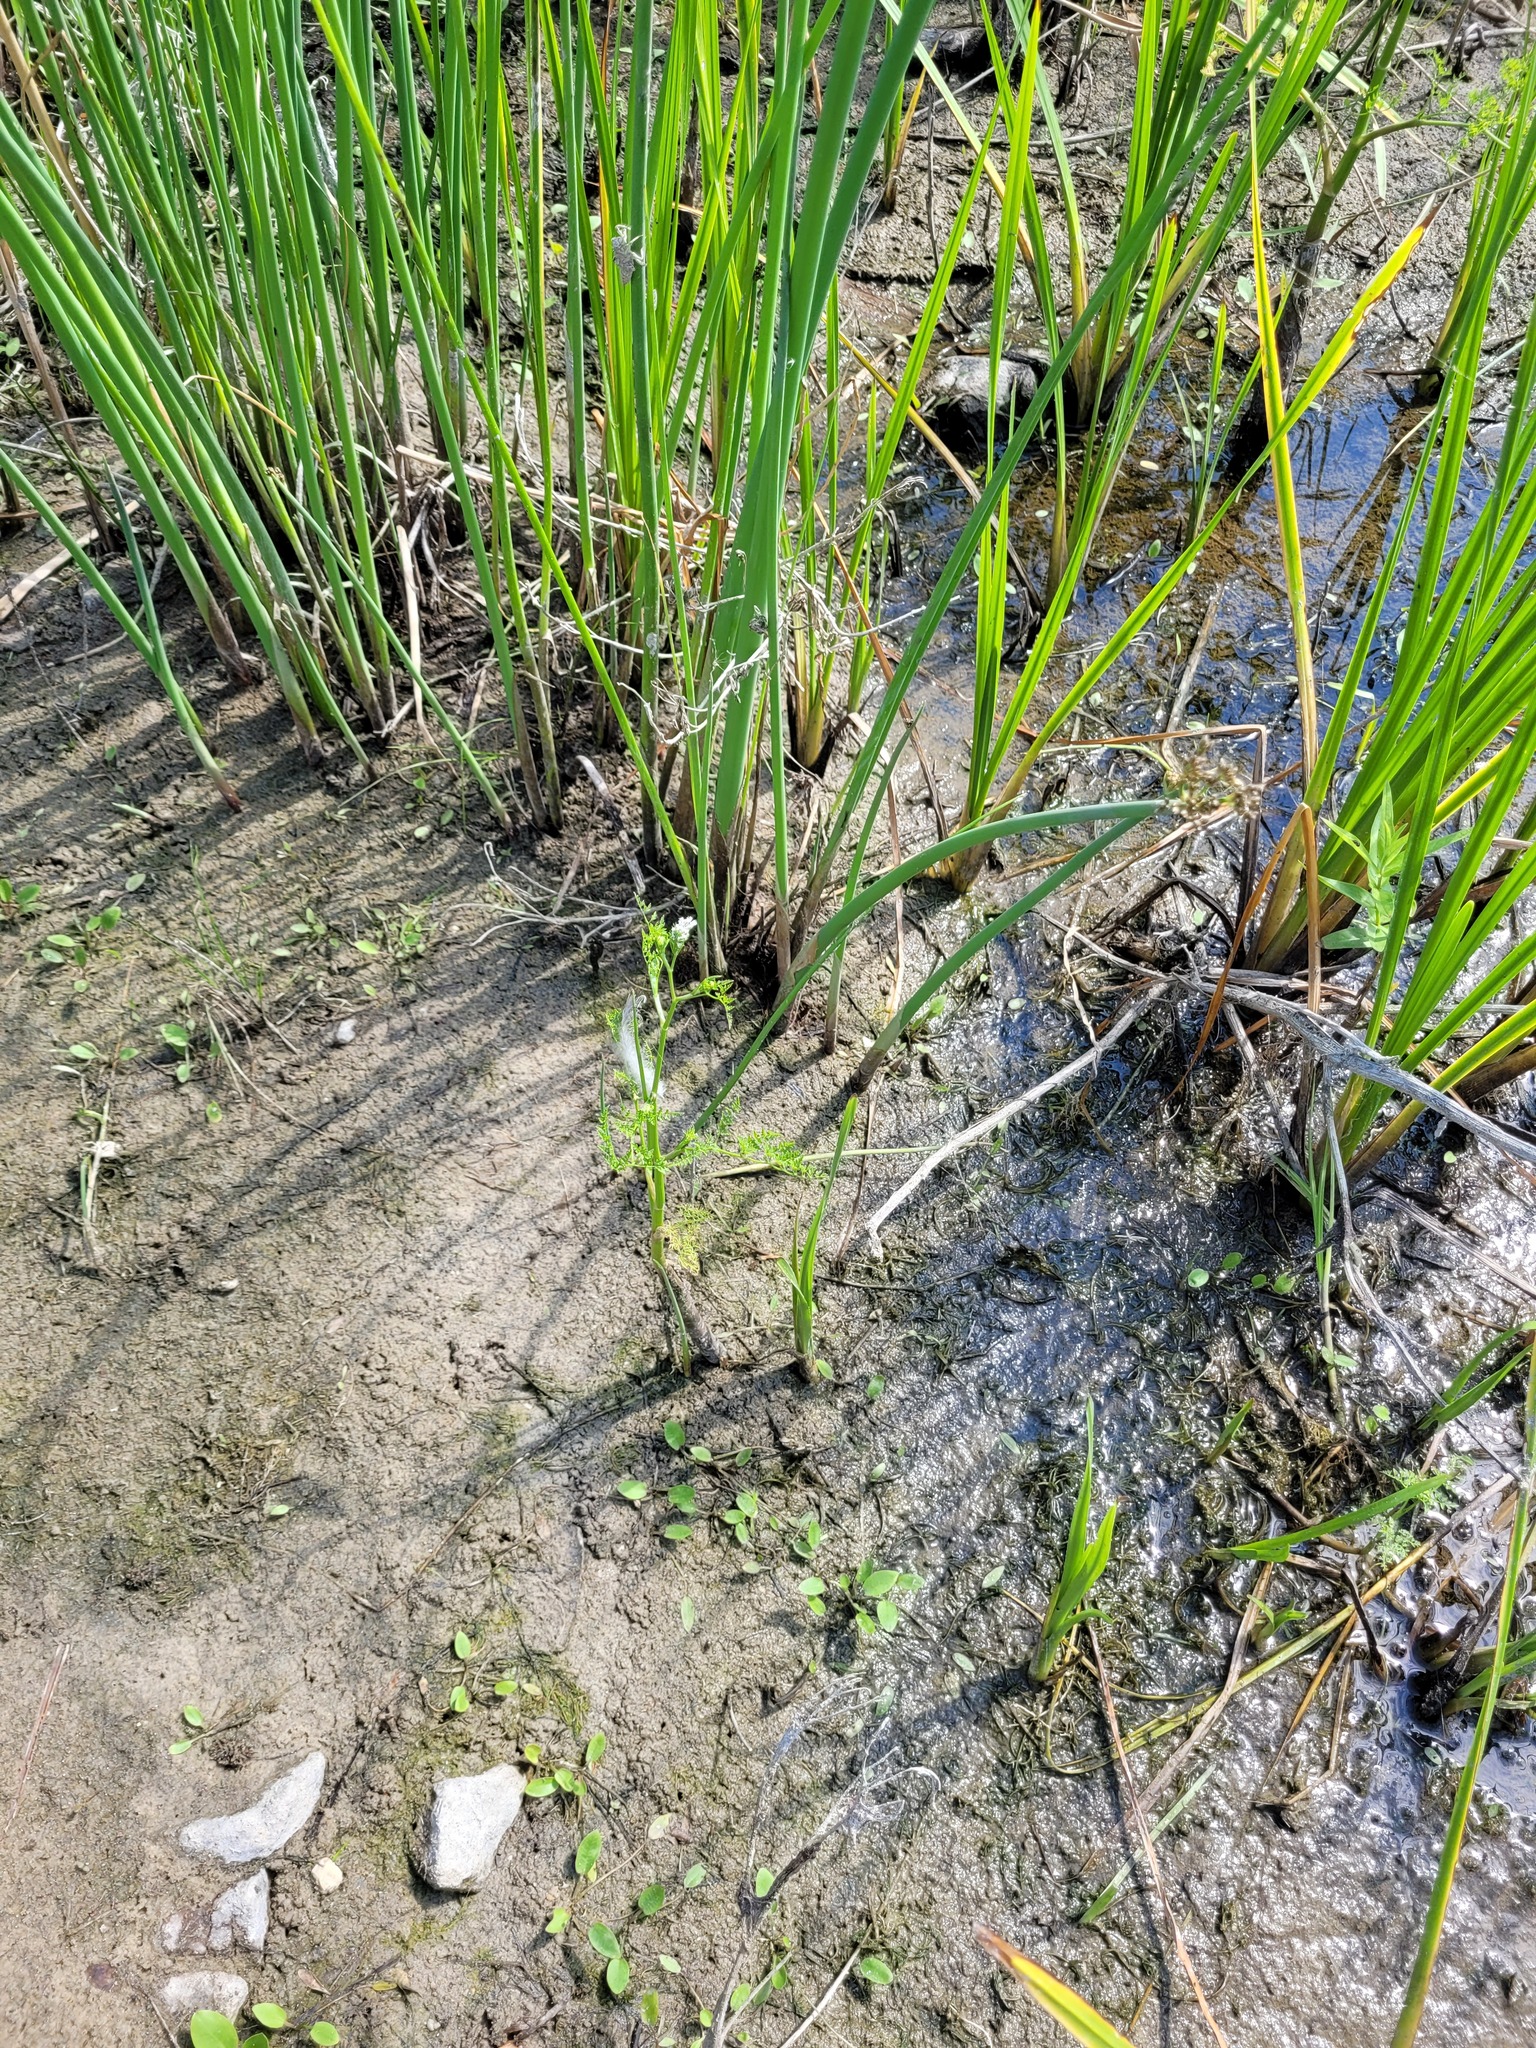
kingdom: Plantae
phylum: Tracheophyta
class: Magnoliopsida
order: Apiales
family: Apiaceae
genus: Oenanthe
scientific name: Oenanthe aquatica
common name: Fine-leaved water-dropwort
